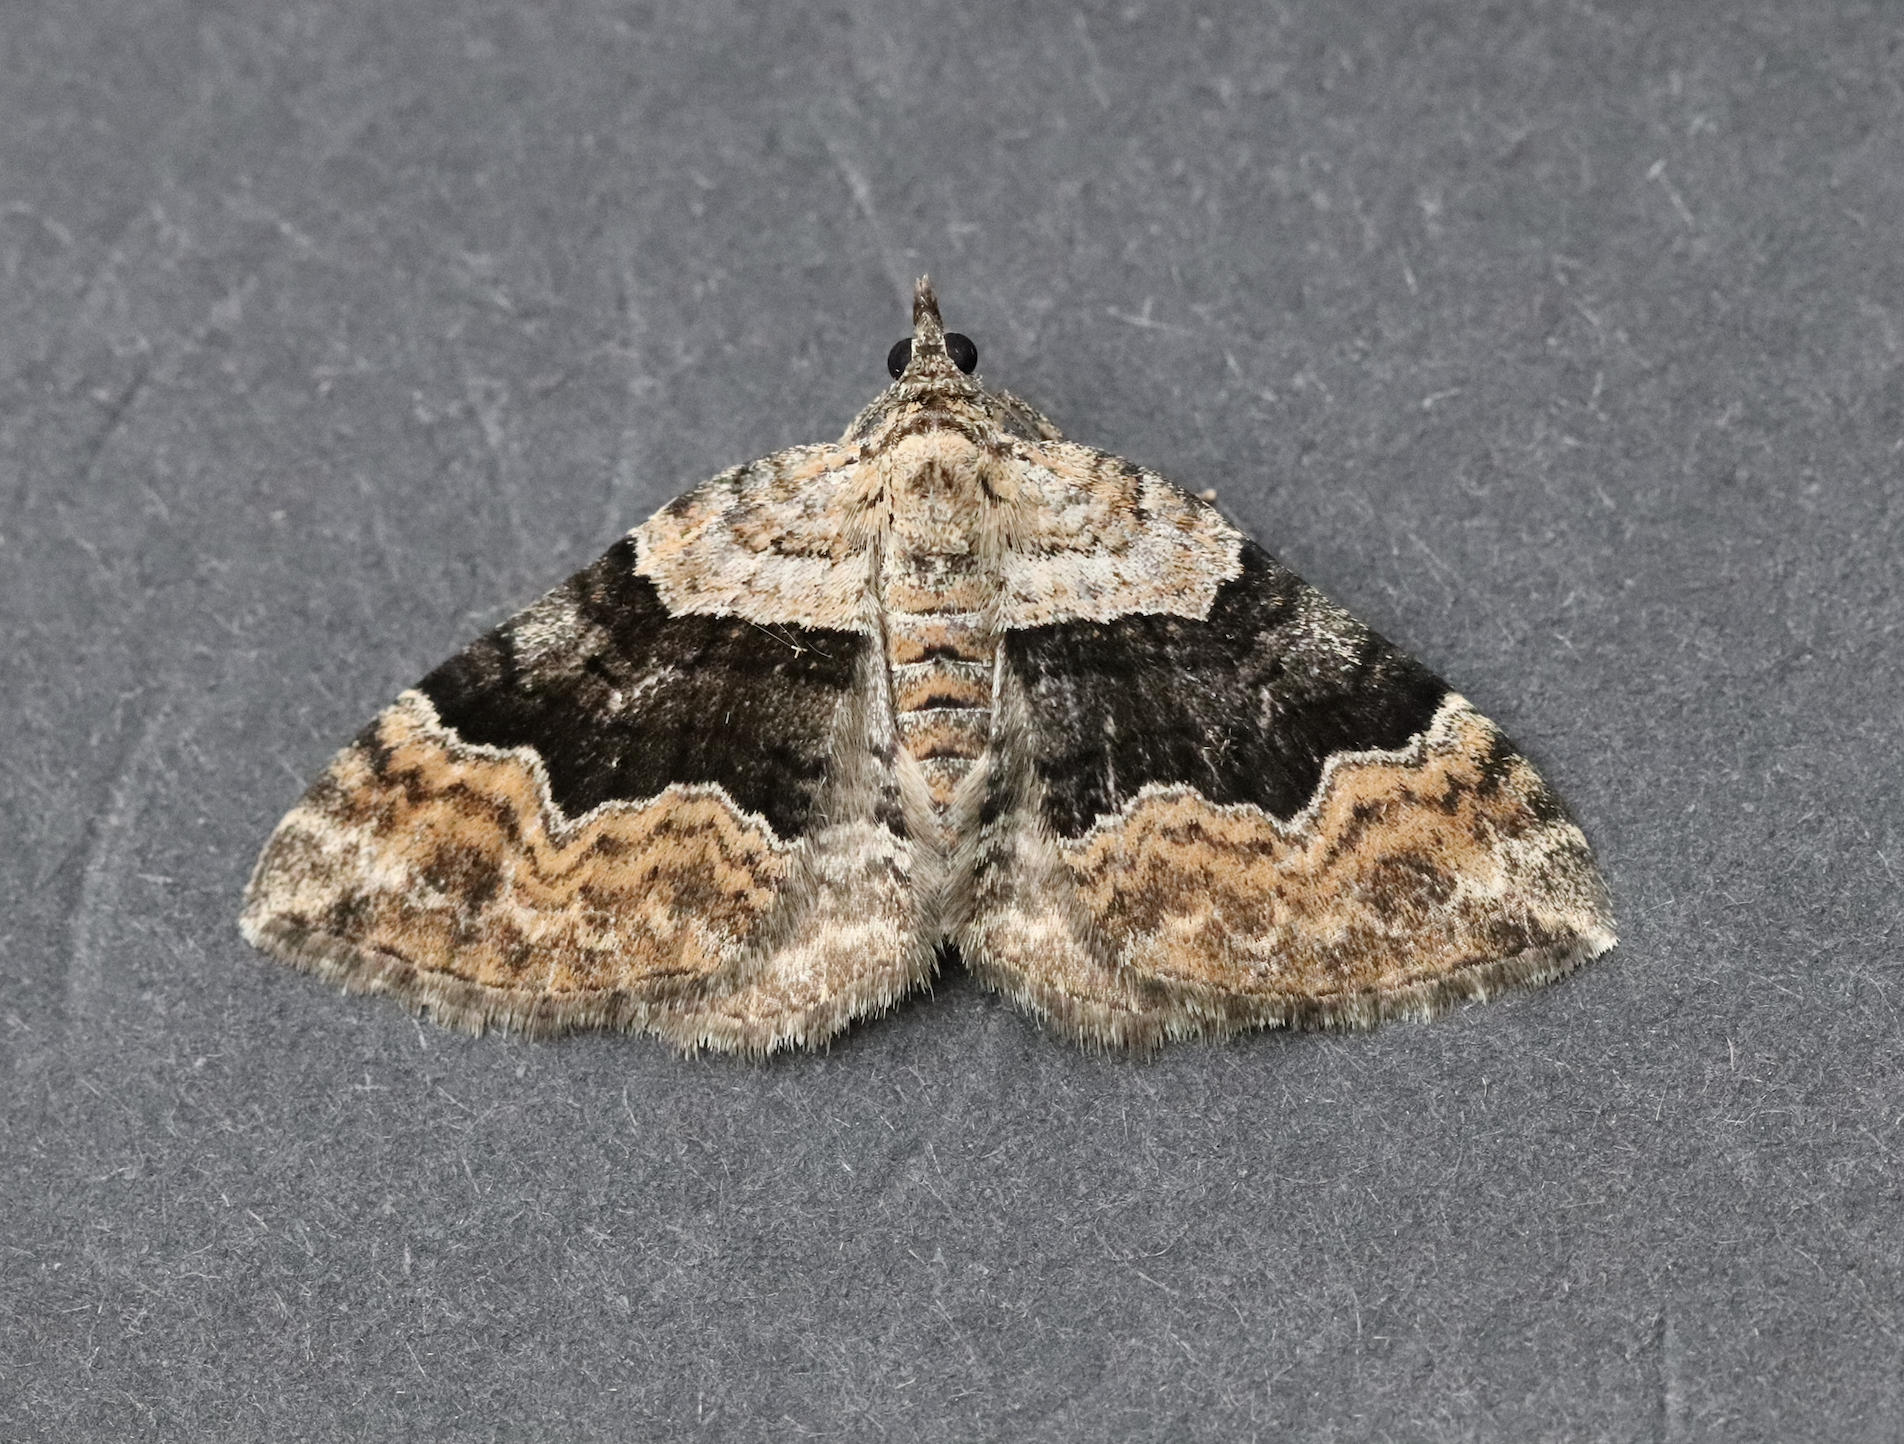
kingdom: Animalia
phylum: Arthropoda
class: Insecta
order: Lepidoptera
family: Geometridae
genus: Xanthorhoe
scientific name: Xanthorhoe quadrifasiata
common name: Large twin-spot carpet
